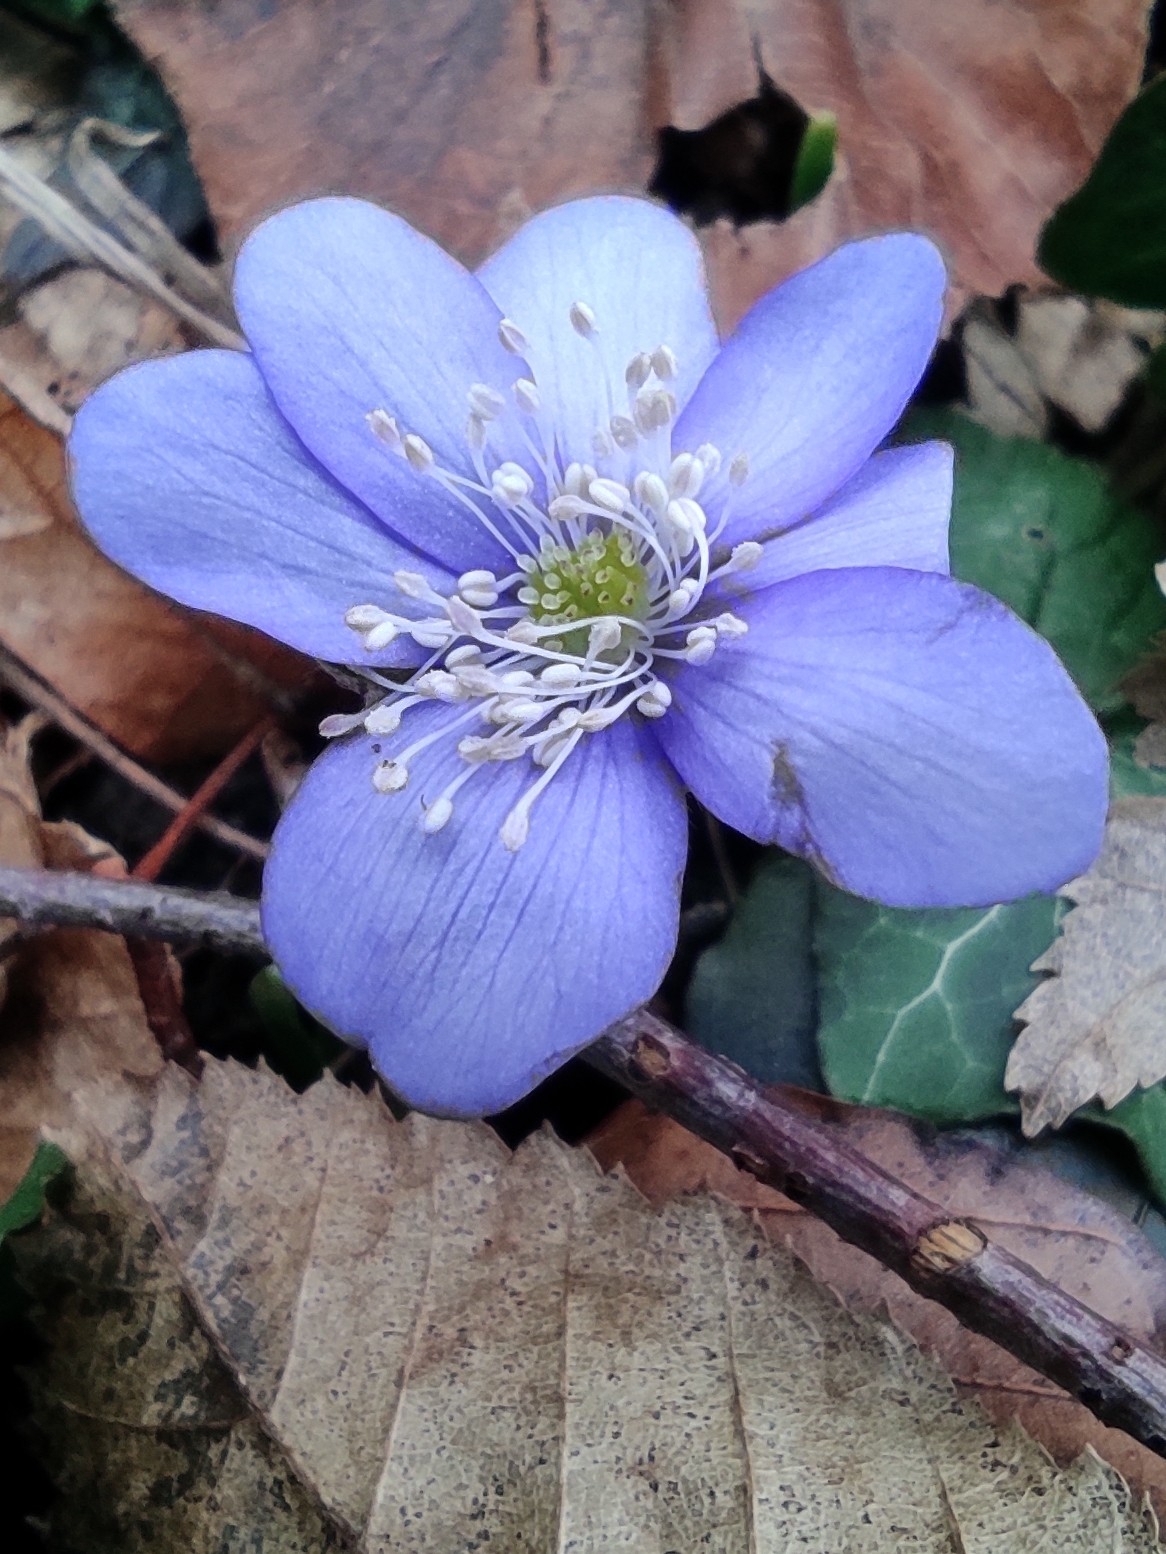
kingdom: Plantae
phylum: Tracheophyta
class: Magnoliopsida
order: Ranunculales
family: Ranunculaceae
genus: Hepatica
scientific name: Hepatica nobilis
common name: Liverleaf
